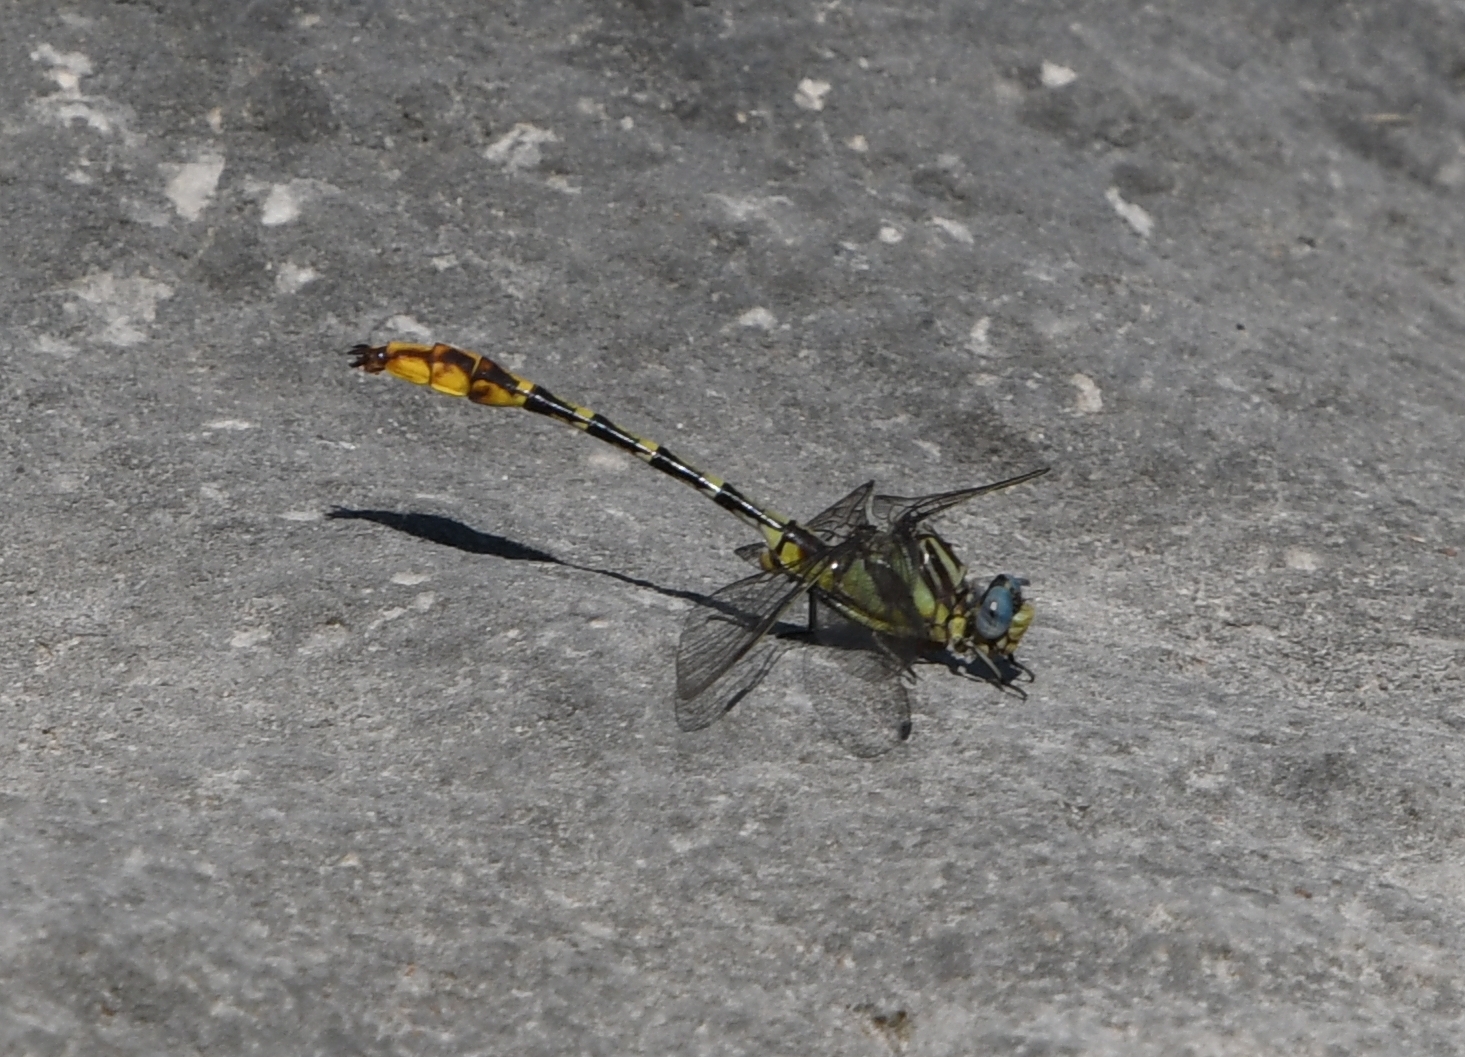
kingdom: Animalia
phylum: Arthropoda
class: Insecta
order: Odonata
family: Gomphidae
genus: Phanogomphus
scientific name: Phanogomphus militaris
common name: Sulphur-tipped clubtail
